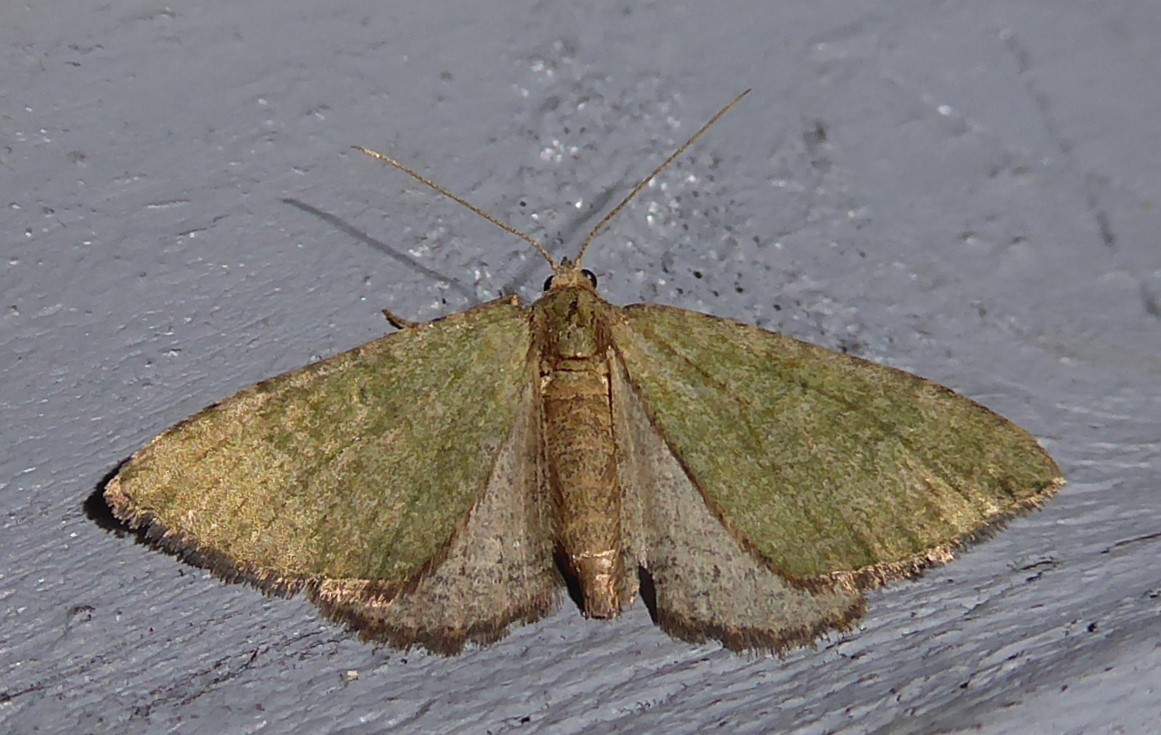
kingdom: Animalia
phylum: Arthropoda
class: Insecta
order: Lepidoptera
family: Geometridae
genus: Epyaxa
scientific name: Epyaxa rosearia
